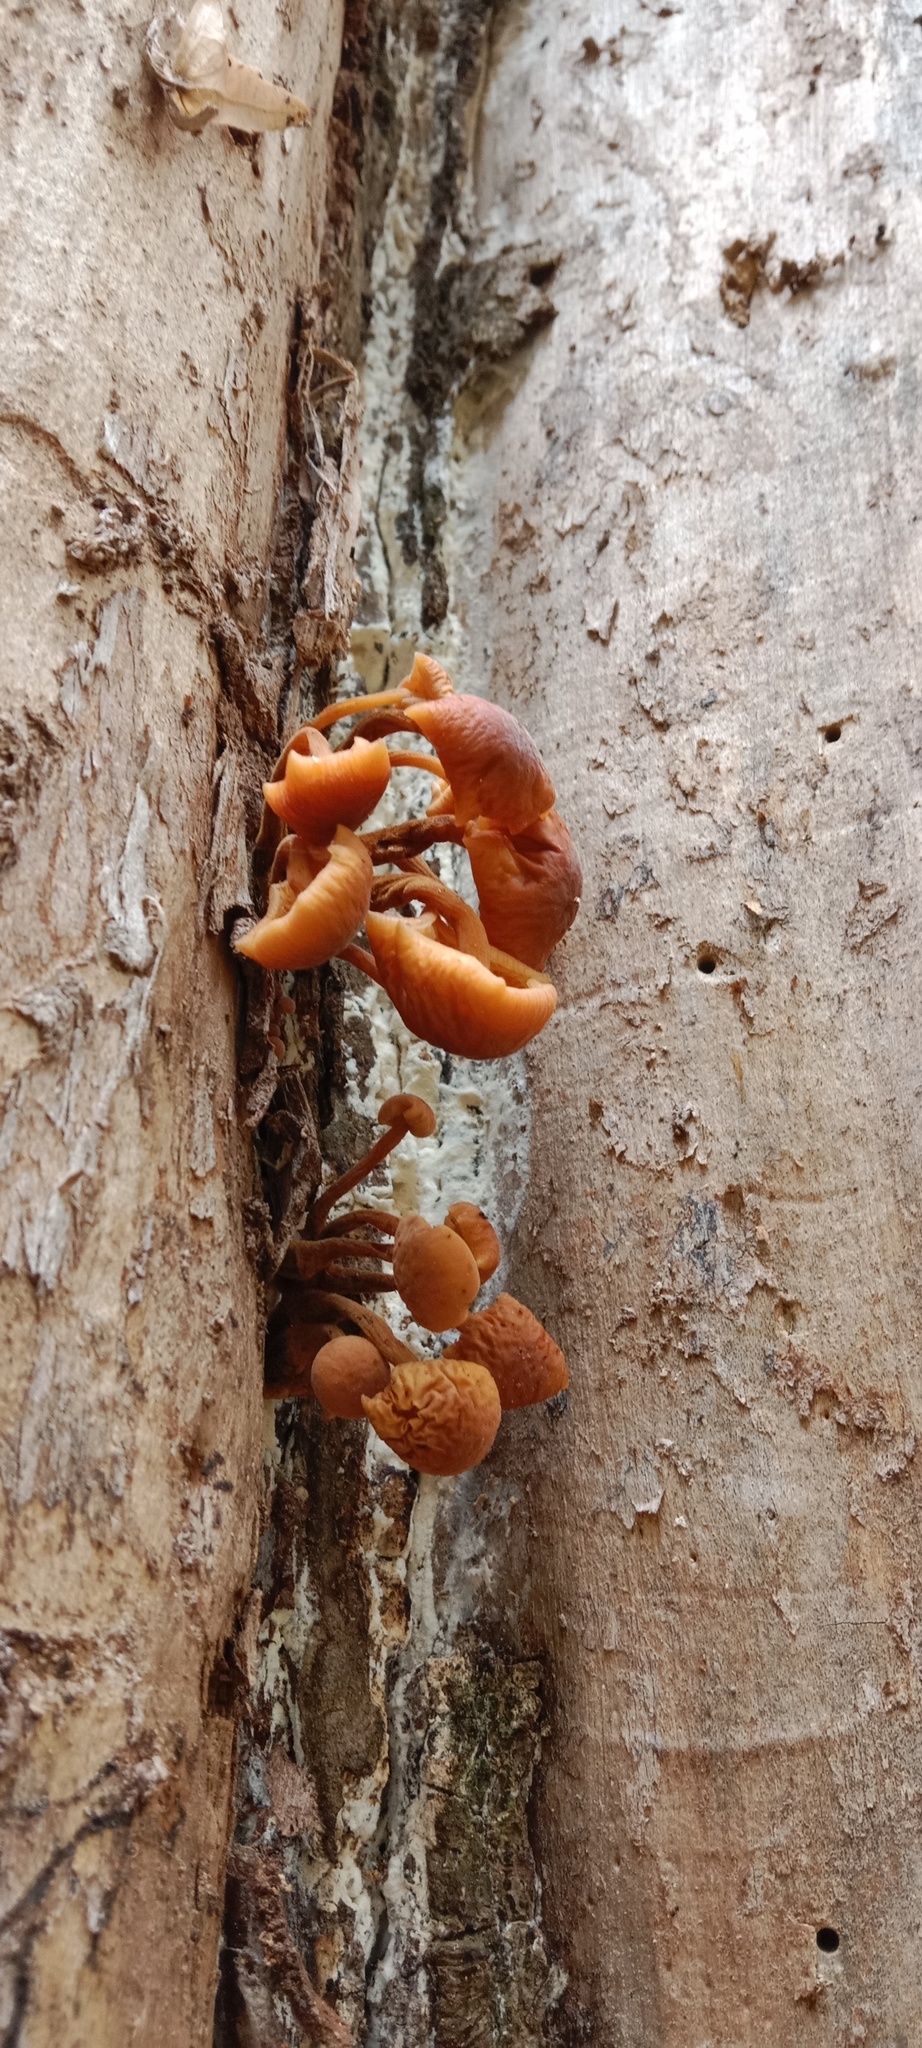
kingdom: Fungi
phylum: Basidiomycota
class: Agaricomycetes
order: Agaricales
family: Physalacriaceae
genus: Flammulina
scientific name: Flammulina
